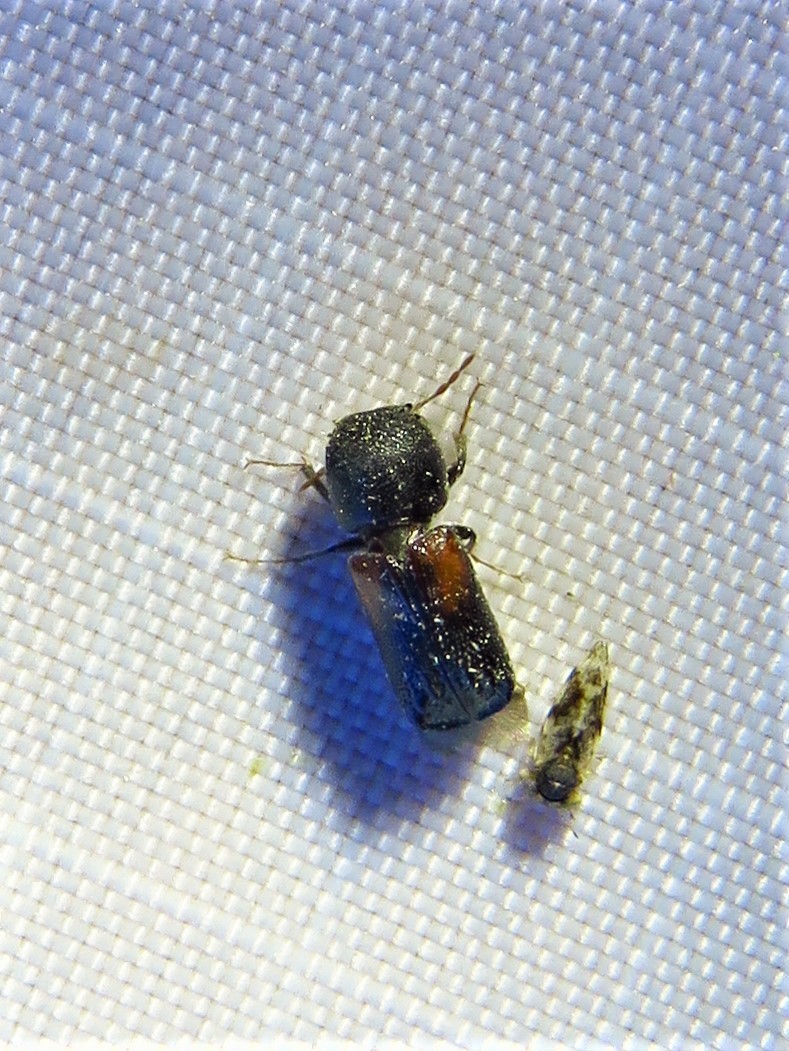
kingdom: Animalia
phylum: Arthropoda
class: Insecta
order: Coleoptera
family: Bostrichidae
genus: Xylobiops
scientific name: Xylobiops basilaris
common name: Red-shouldered bostrichid
